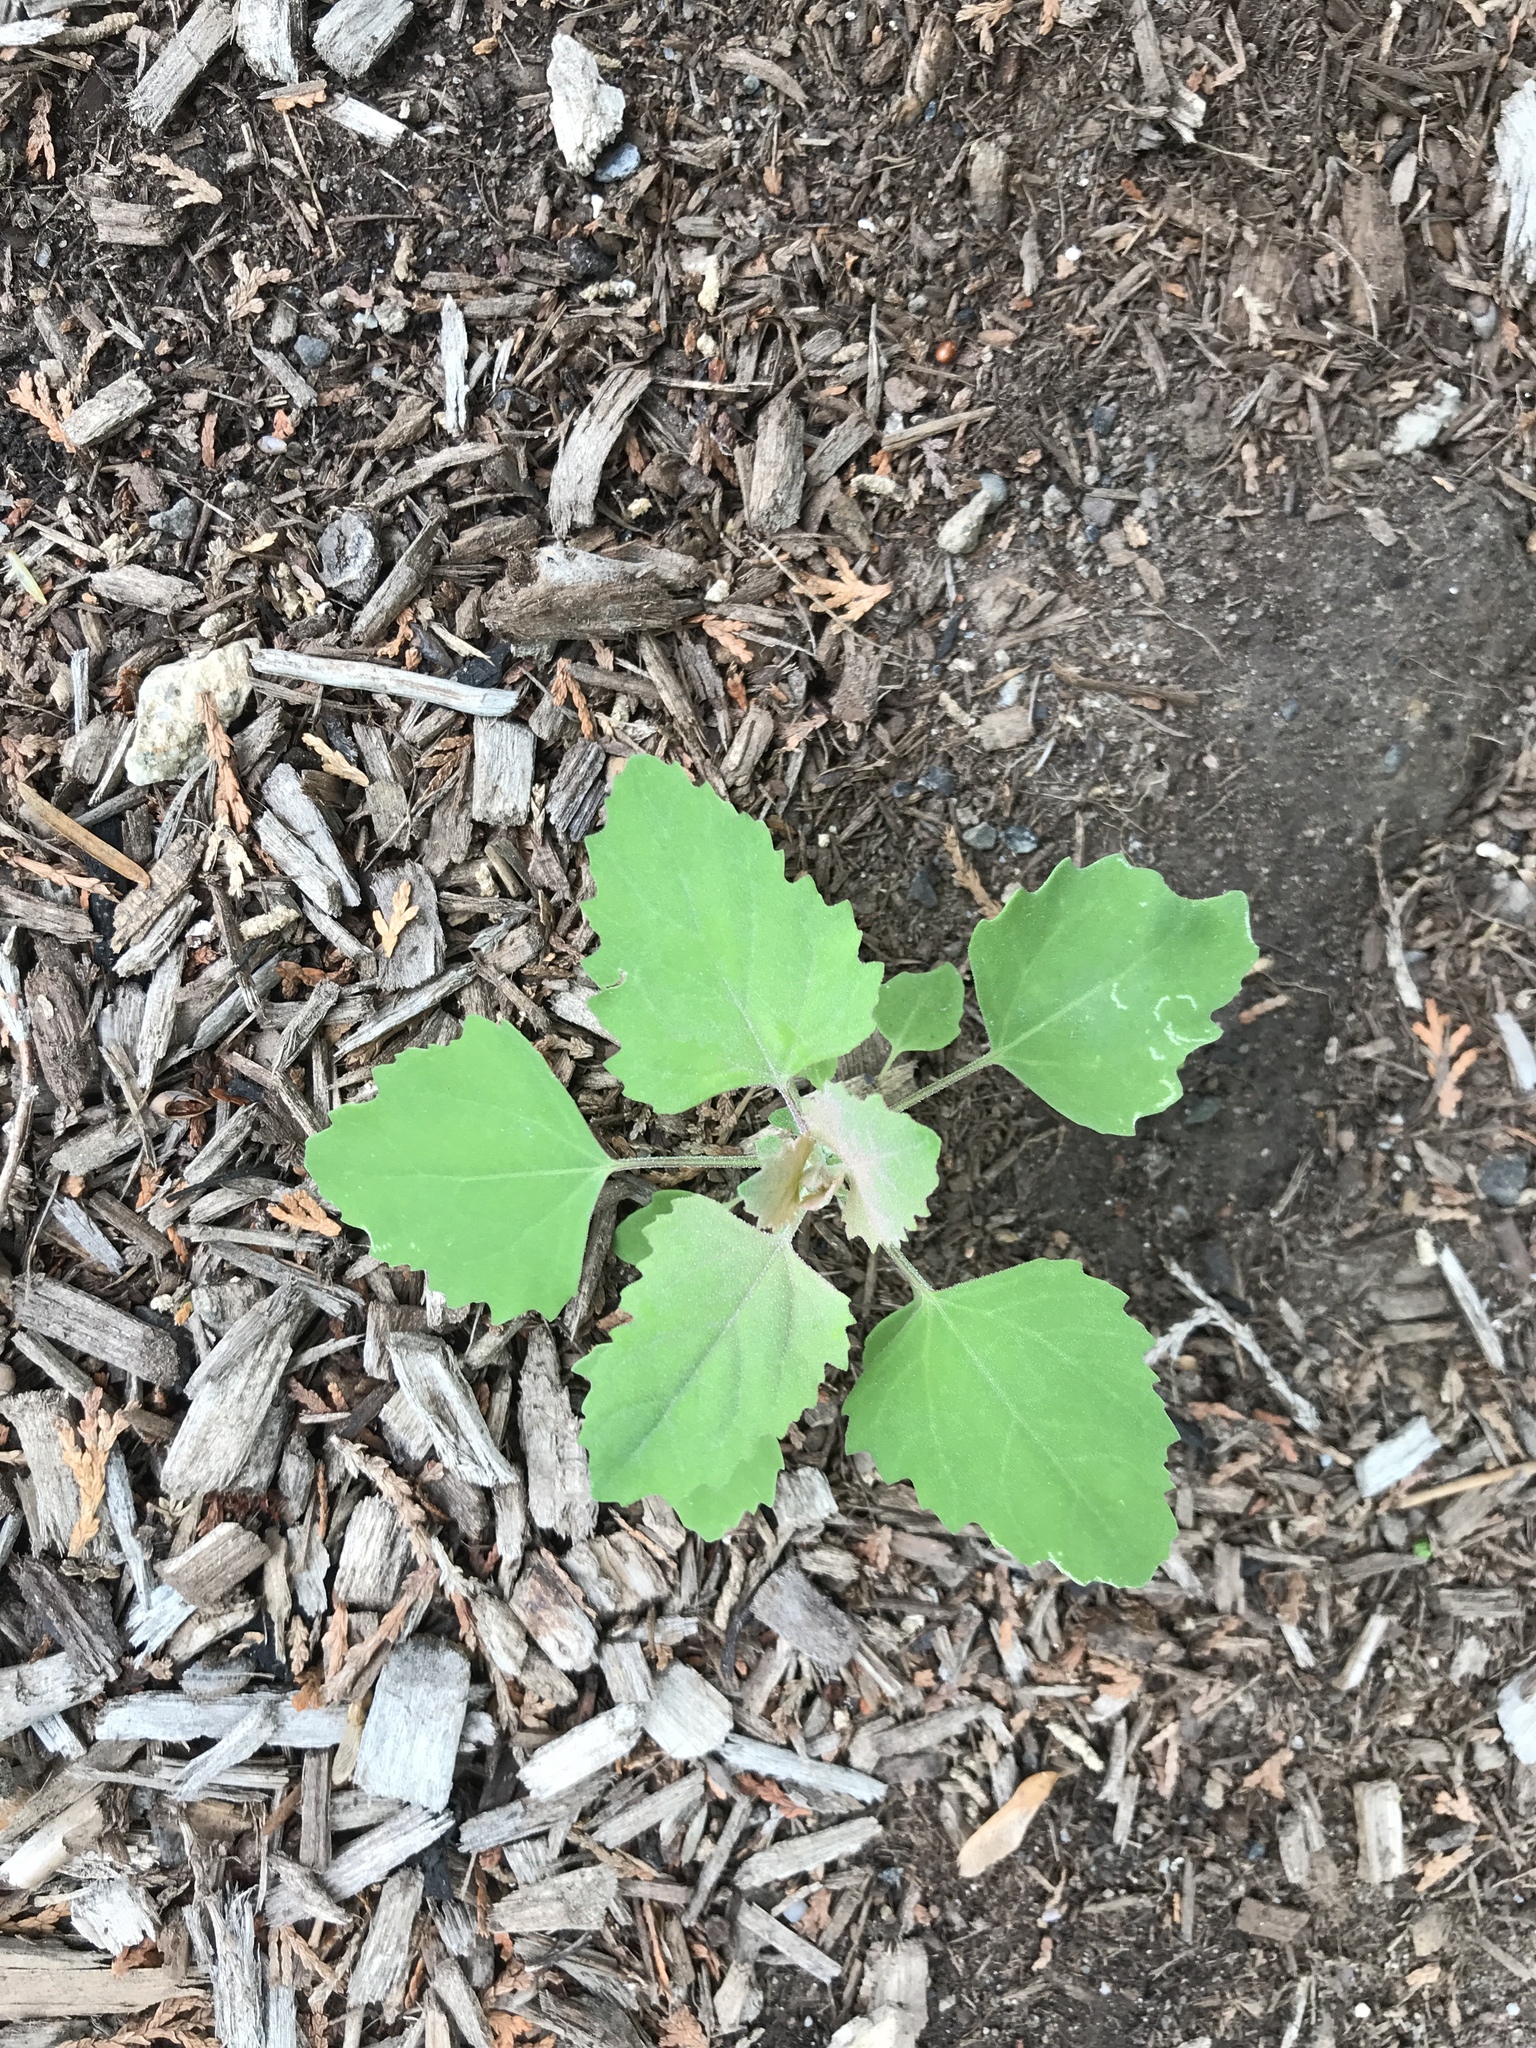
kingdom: Plantae
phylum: Tracheophyta
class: Magnoliopsida
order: Caryophyllales
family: Amaranthaceae
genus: Chenopodium
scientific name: Chenopodium album
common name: Fat-hen
